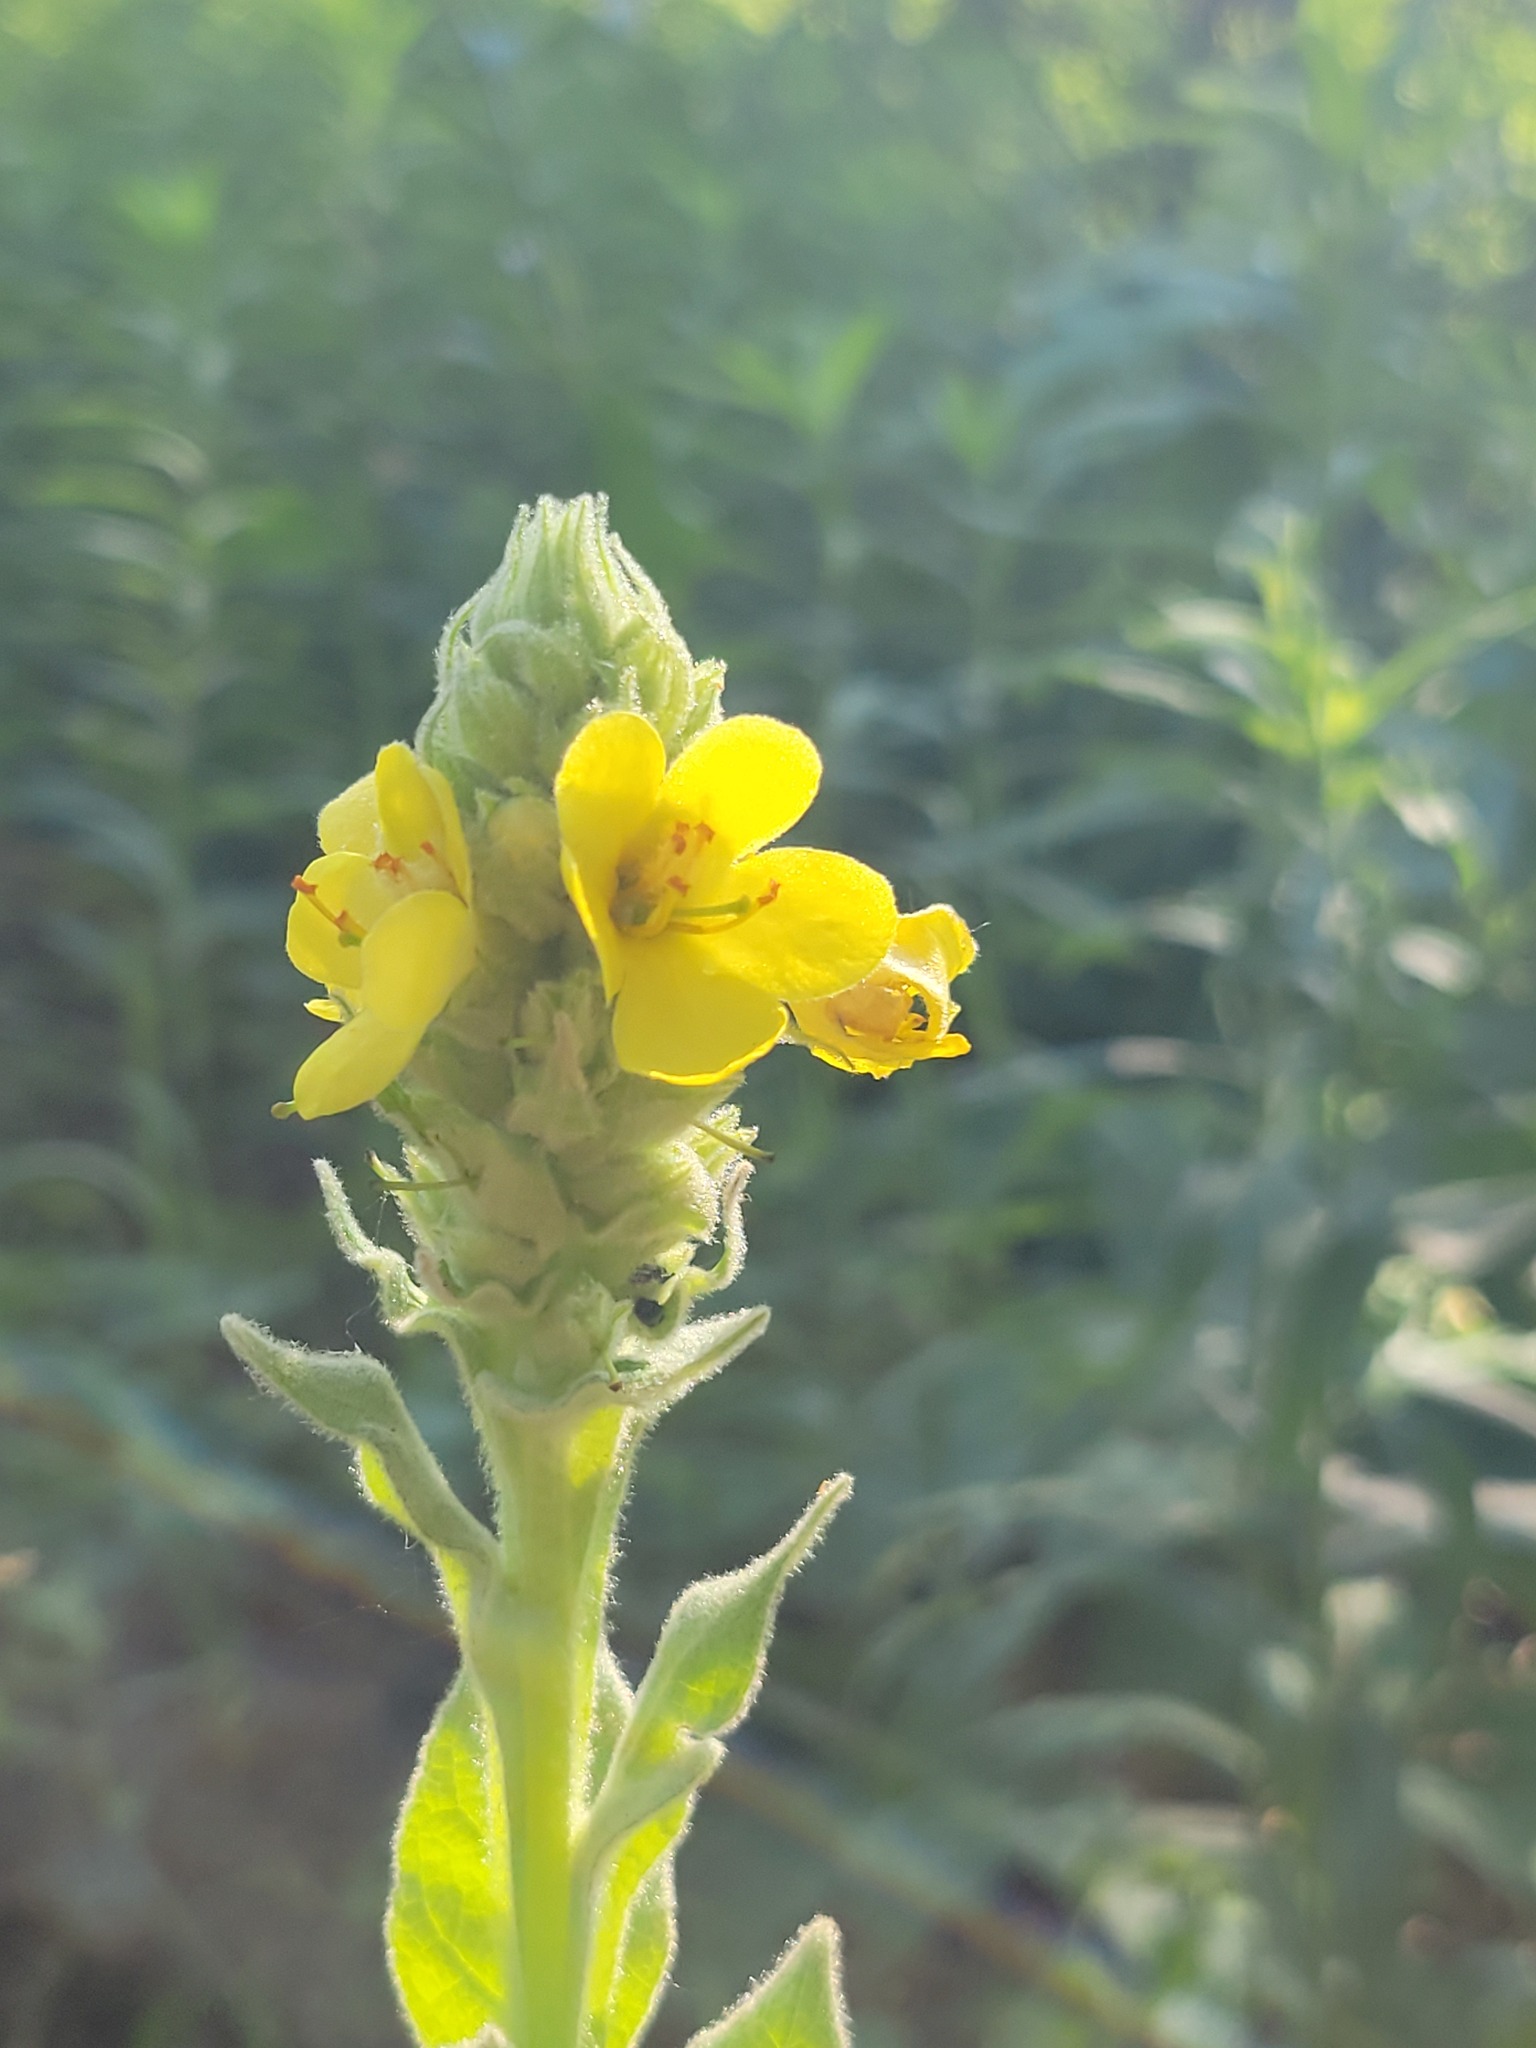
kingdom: Plantae
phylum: Tracheophyta
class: Magnoliopsida
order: Lamiales
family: Scrophulariaceae
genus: Verbascum
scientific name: Verbascum thapsus
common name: Common mullein
